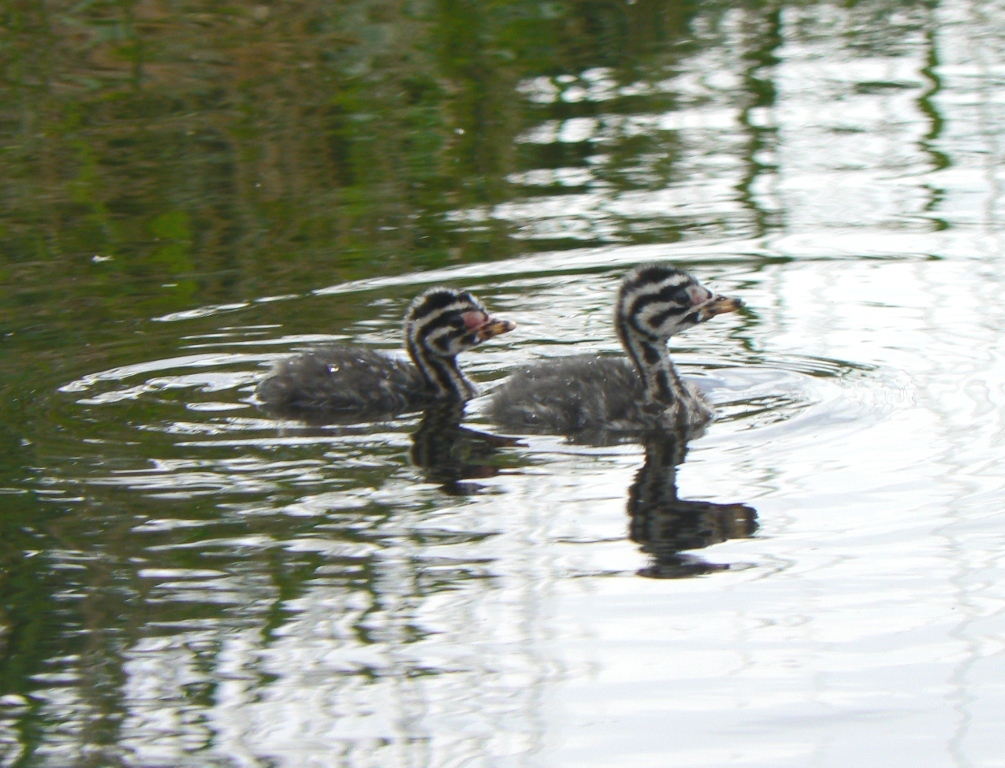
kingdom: Animalia
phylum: Chordata
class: Aves
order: Podicipediformes
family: Podicipedidae
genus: Podiceps
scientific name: Podiceps grisegena
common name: Red-necked grebe
